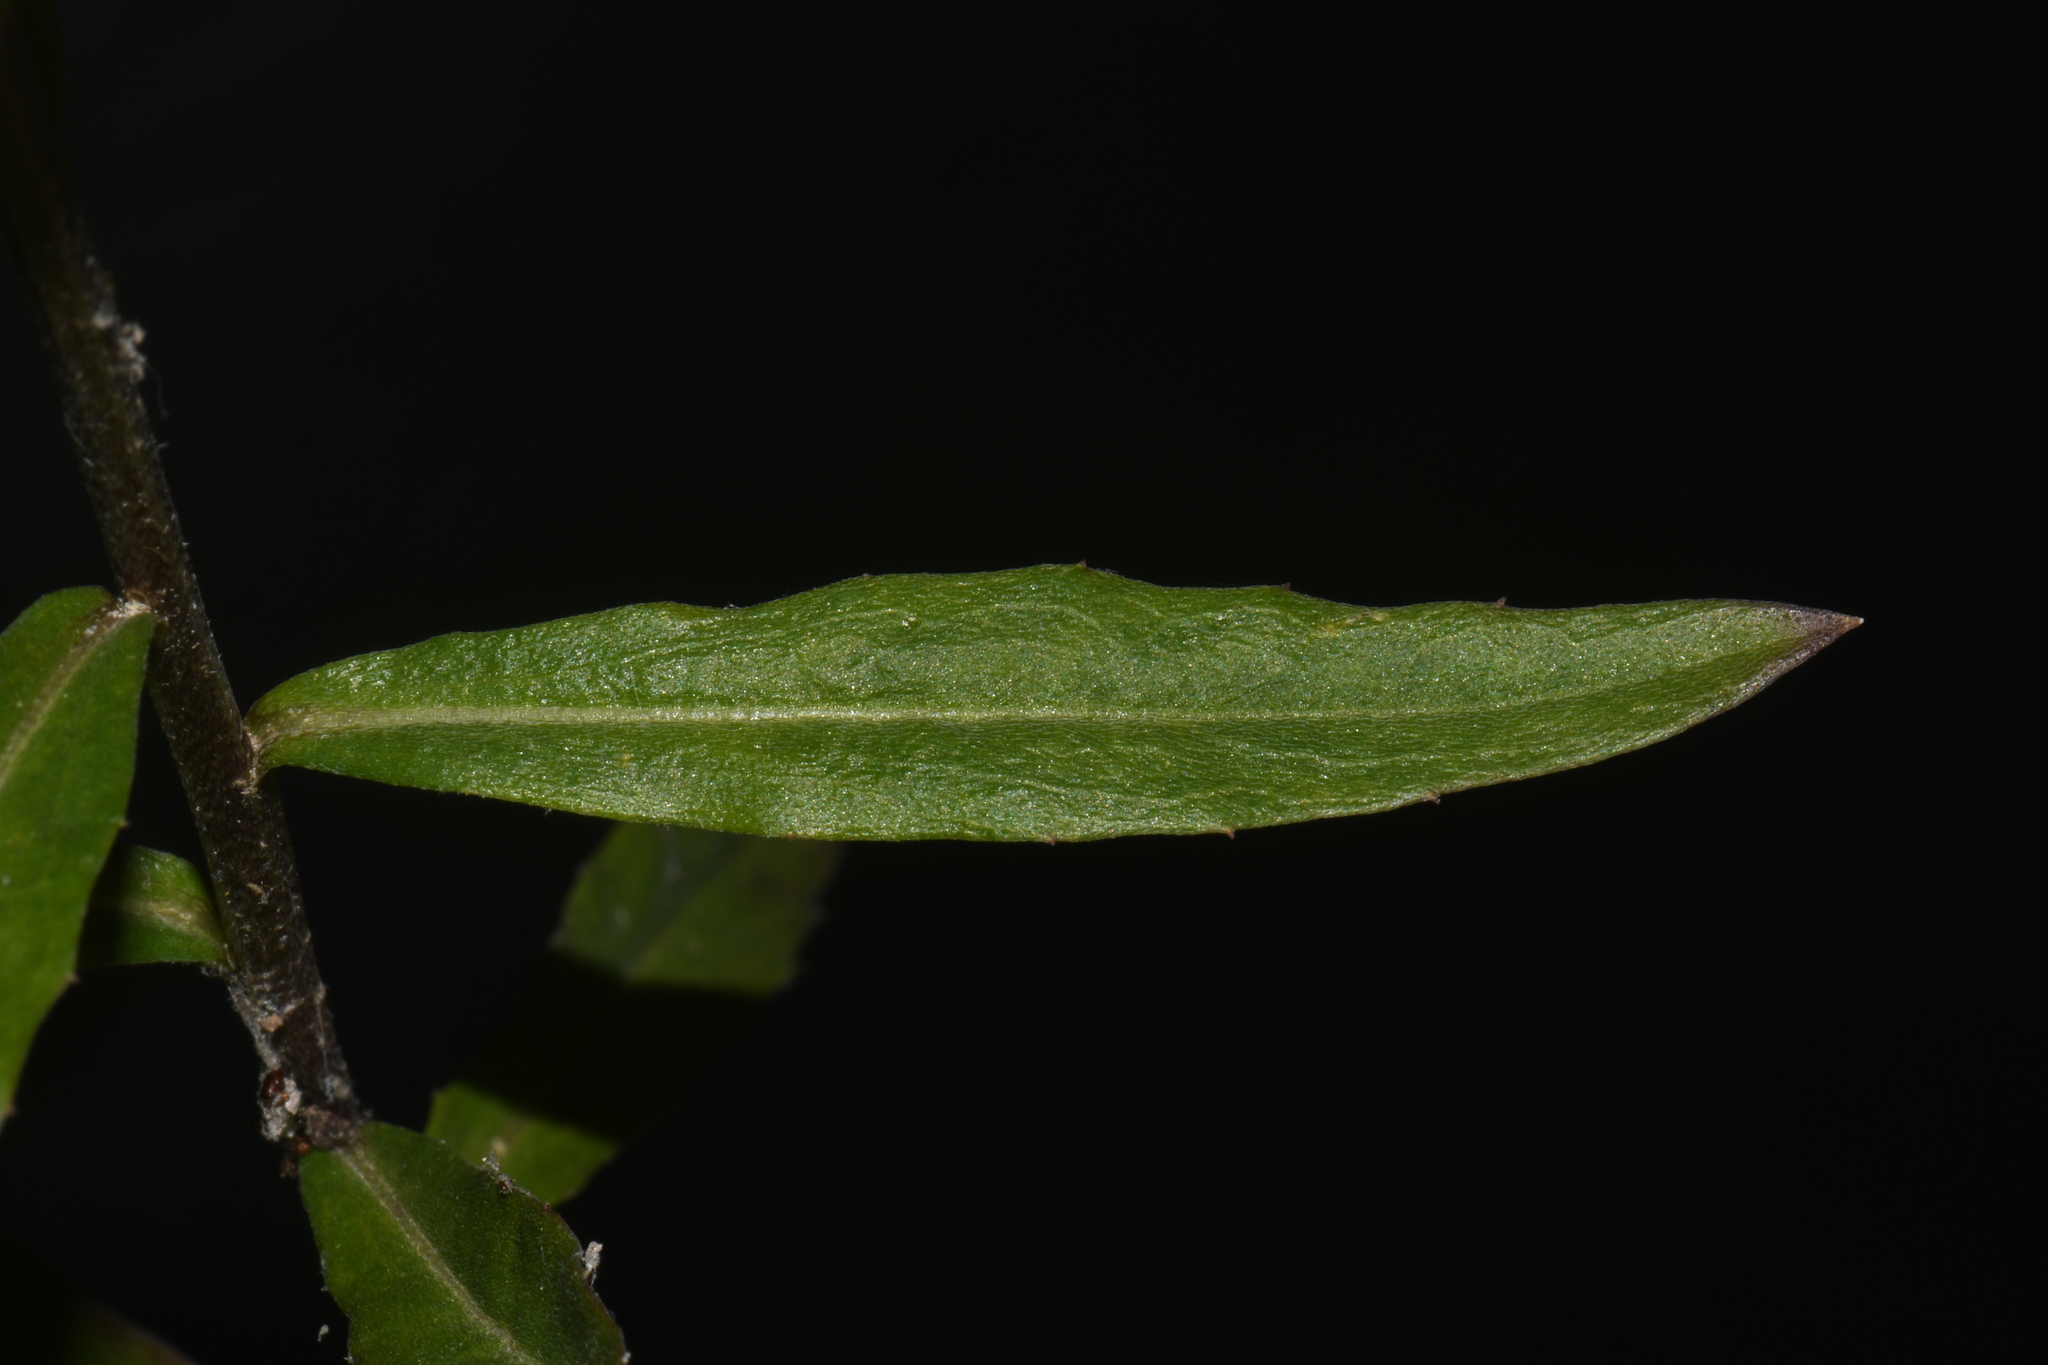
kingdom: Plantae
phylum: Tracheophyta
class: Magnoliopsida
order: Brassicales
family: Brassicaceae
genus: Erysimum
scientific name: Erysimum capitatum
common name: Western wallflower
